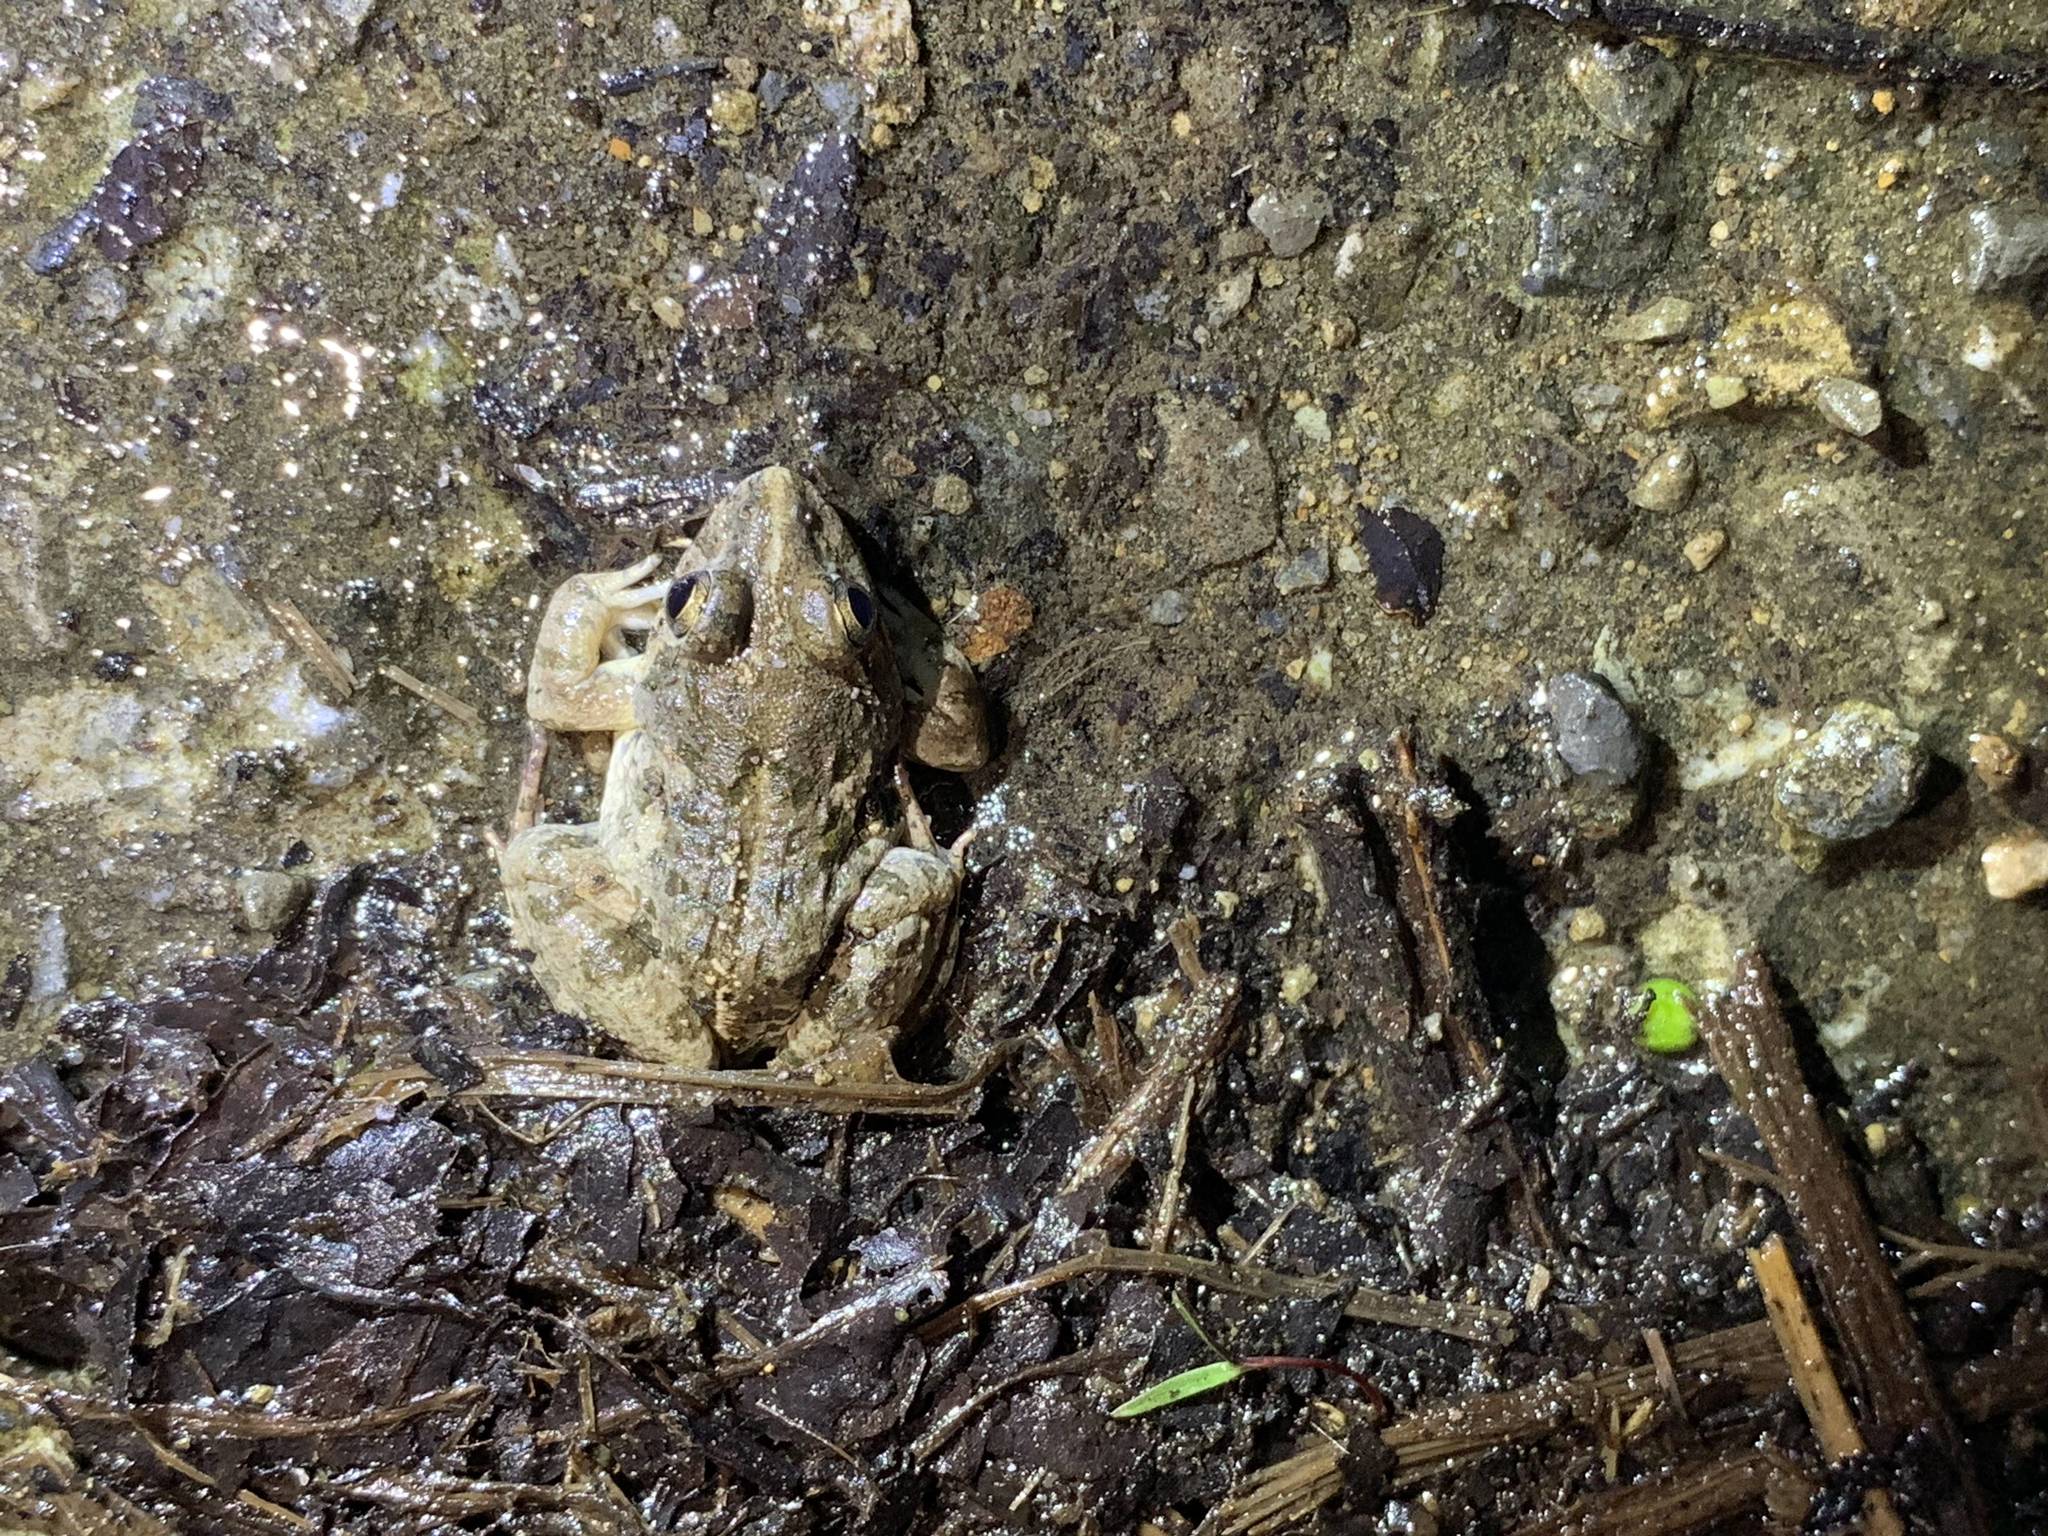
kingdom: Animalia
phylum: Chordata
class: Amphibia
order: Anura
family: Dicroglossidae
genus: Fejervarya
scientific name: Fejervarya limnocharis
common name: Asian grass frog/common pond frog/field frog/grass frog/indian rice frog
